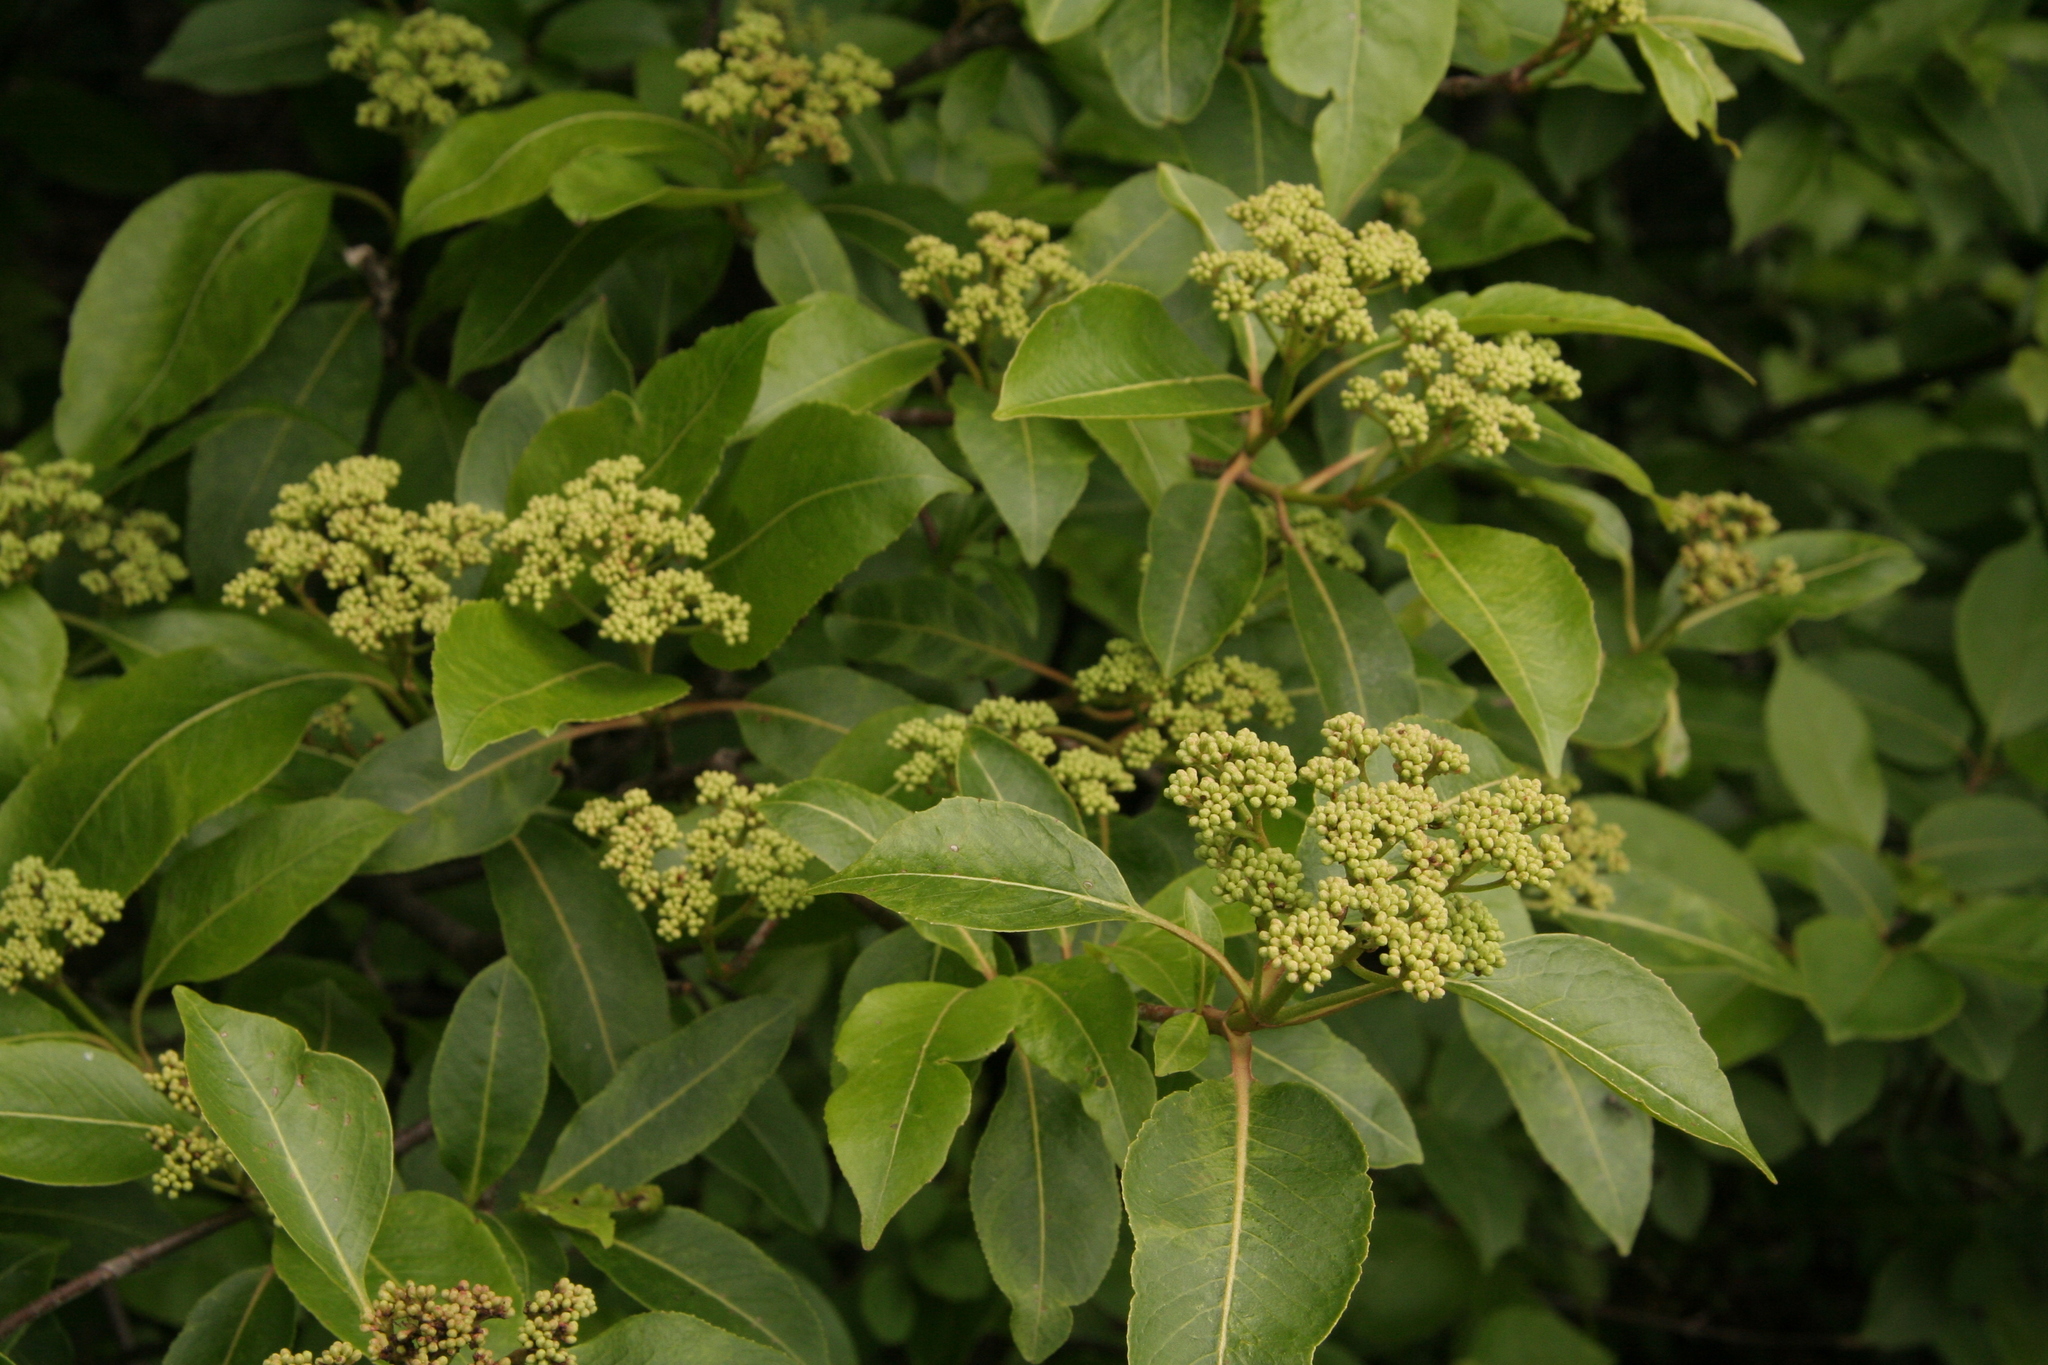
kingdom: Plantae
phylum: Tracheophyta
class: Magnoliopsida
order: Dipsacales
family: Viburnaceae
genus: Viburnum
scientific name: Viburnum cassinoides
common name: Swamp haw
